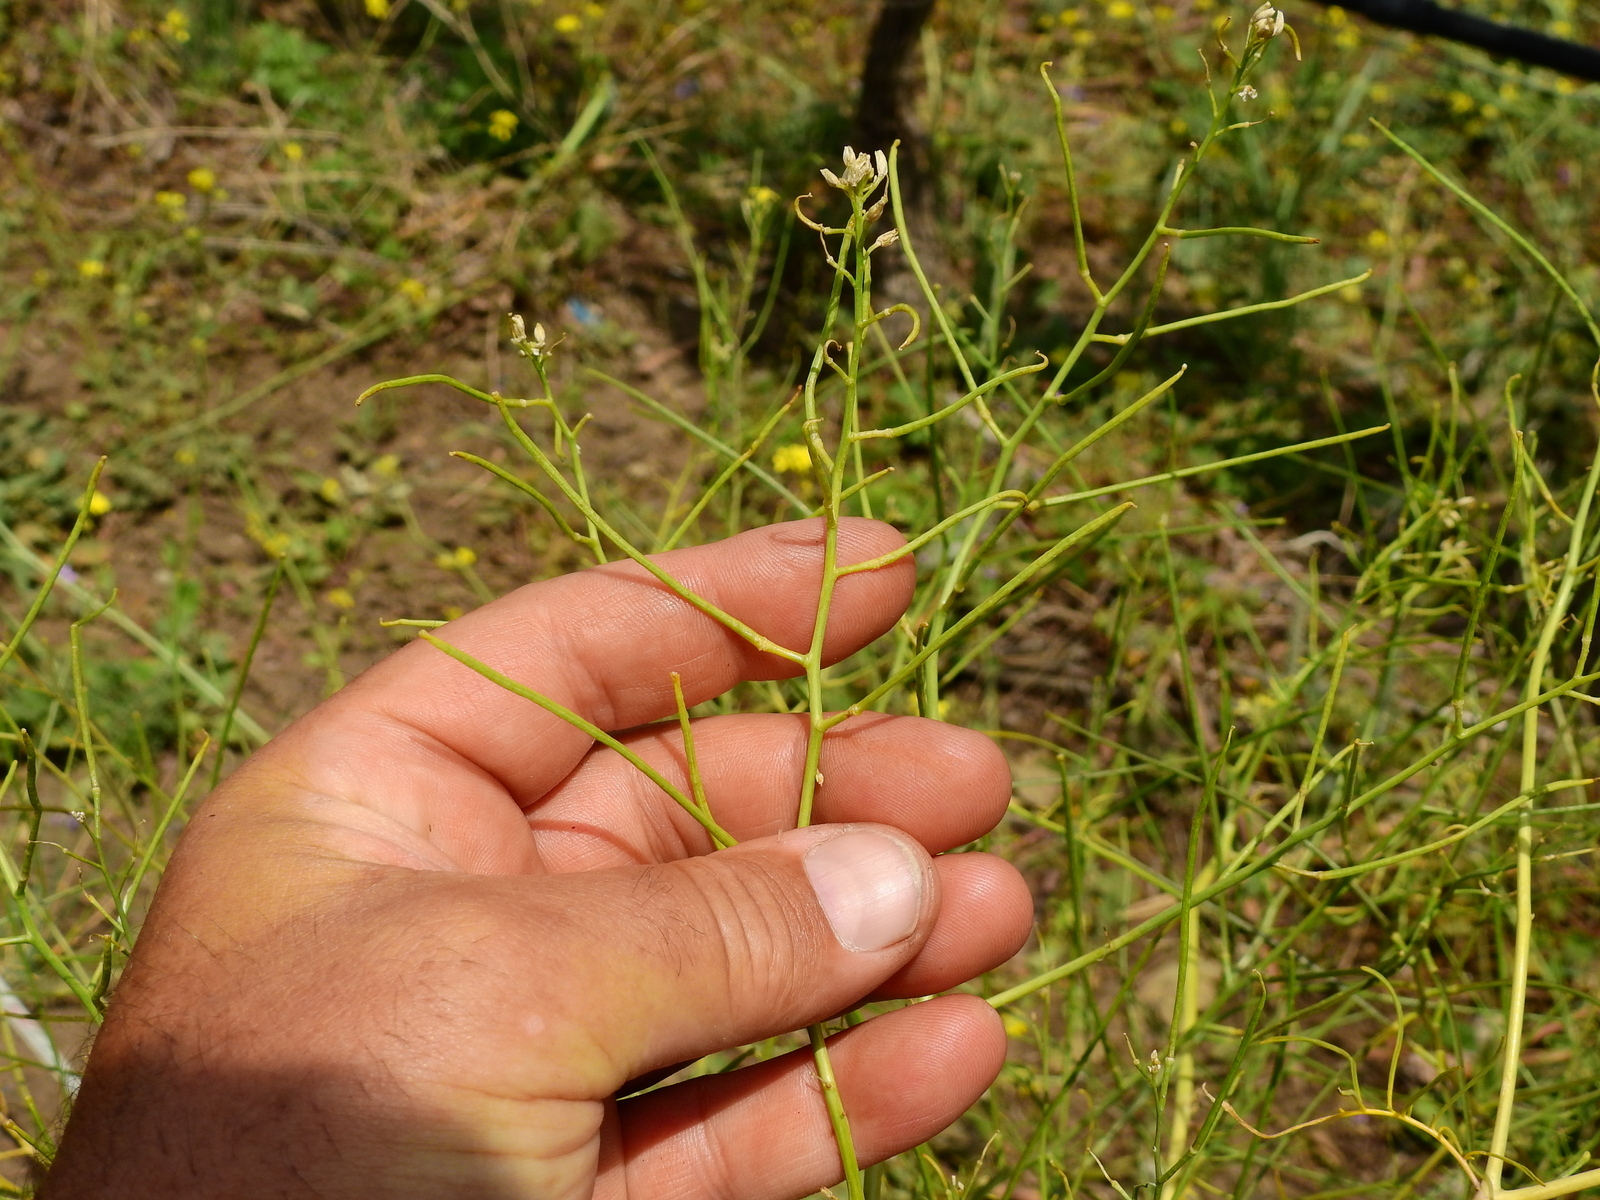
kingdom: Plantae
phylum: Tracheophyta
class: Magnoliopsida
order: Brassicales
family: Brassicaceae
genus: Sisymbrium
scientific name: Sisymbrium altissimum
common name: Tall rocket
